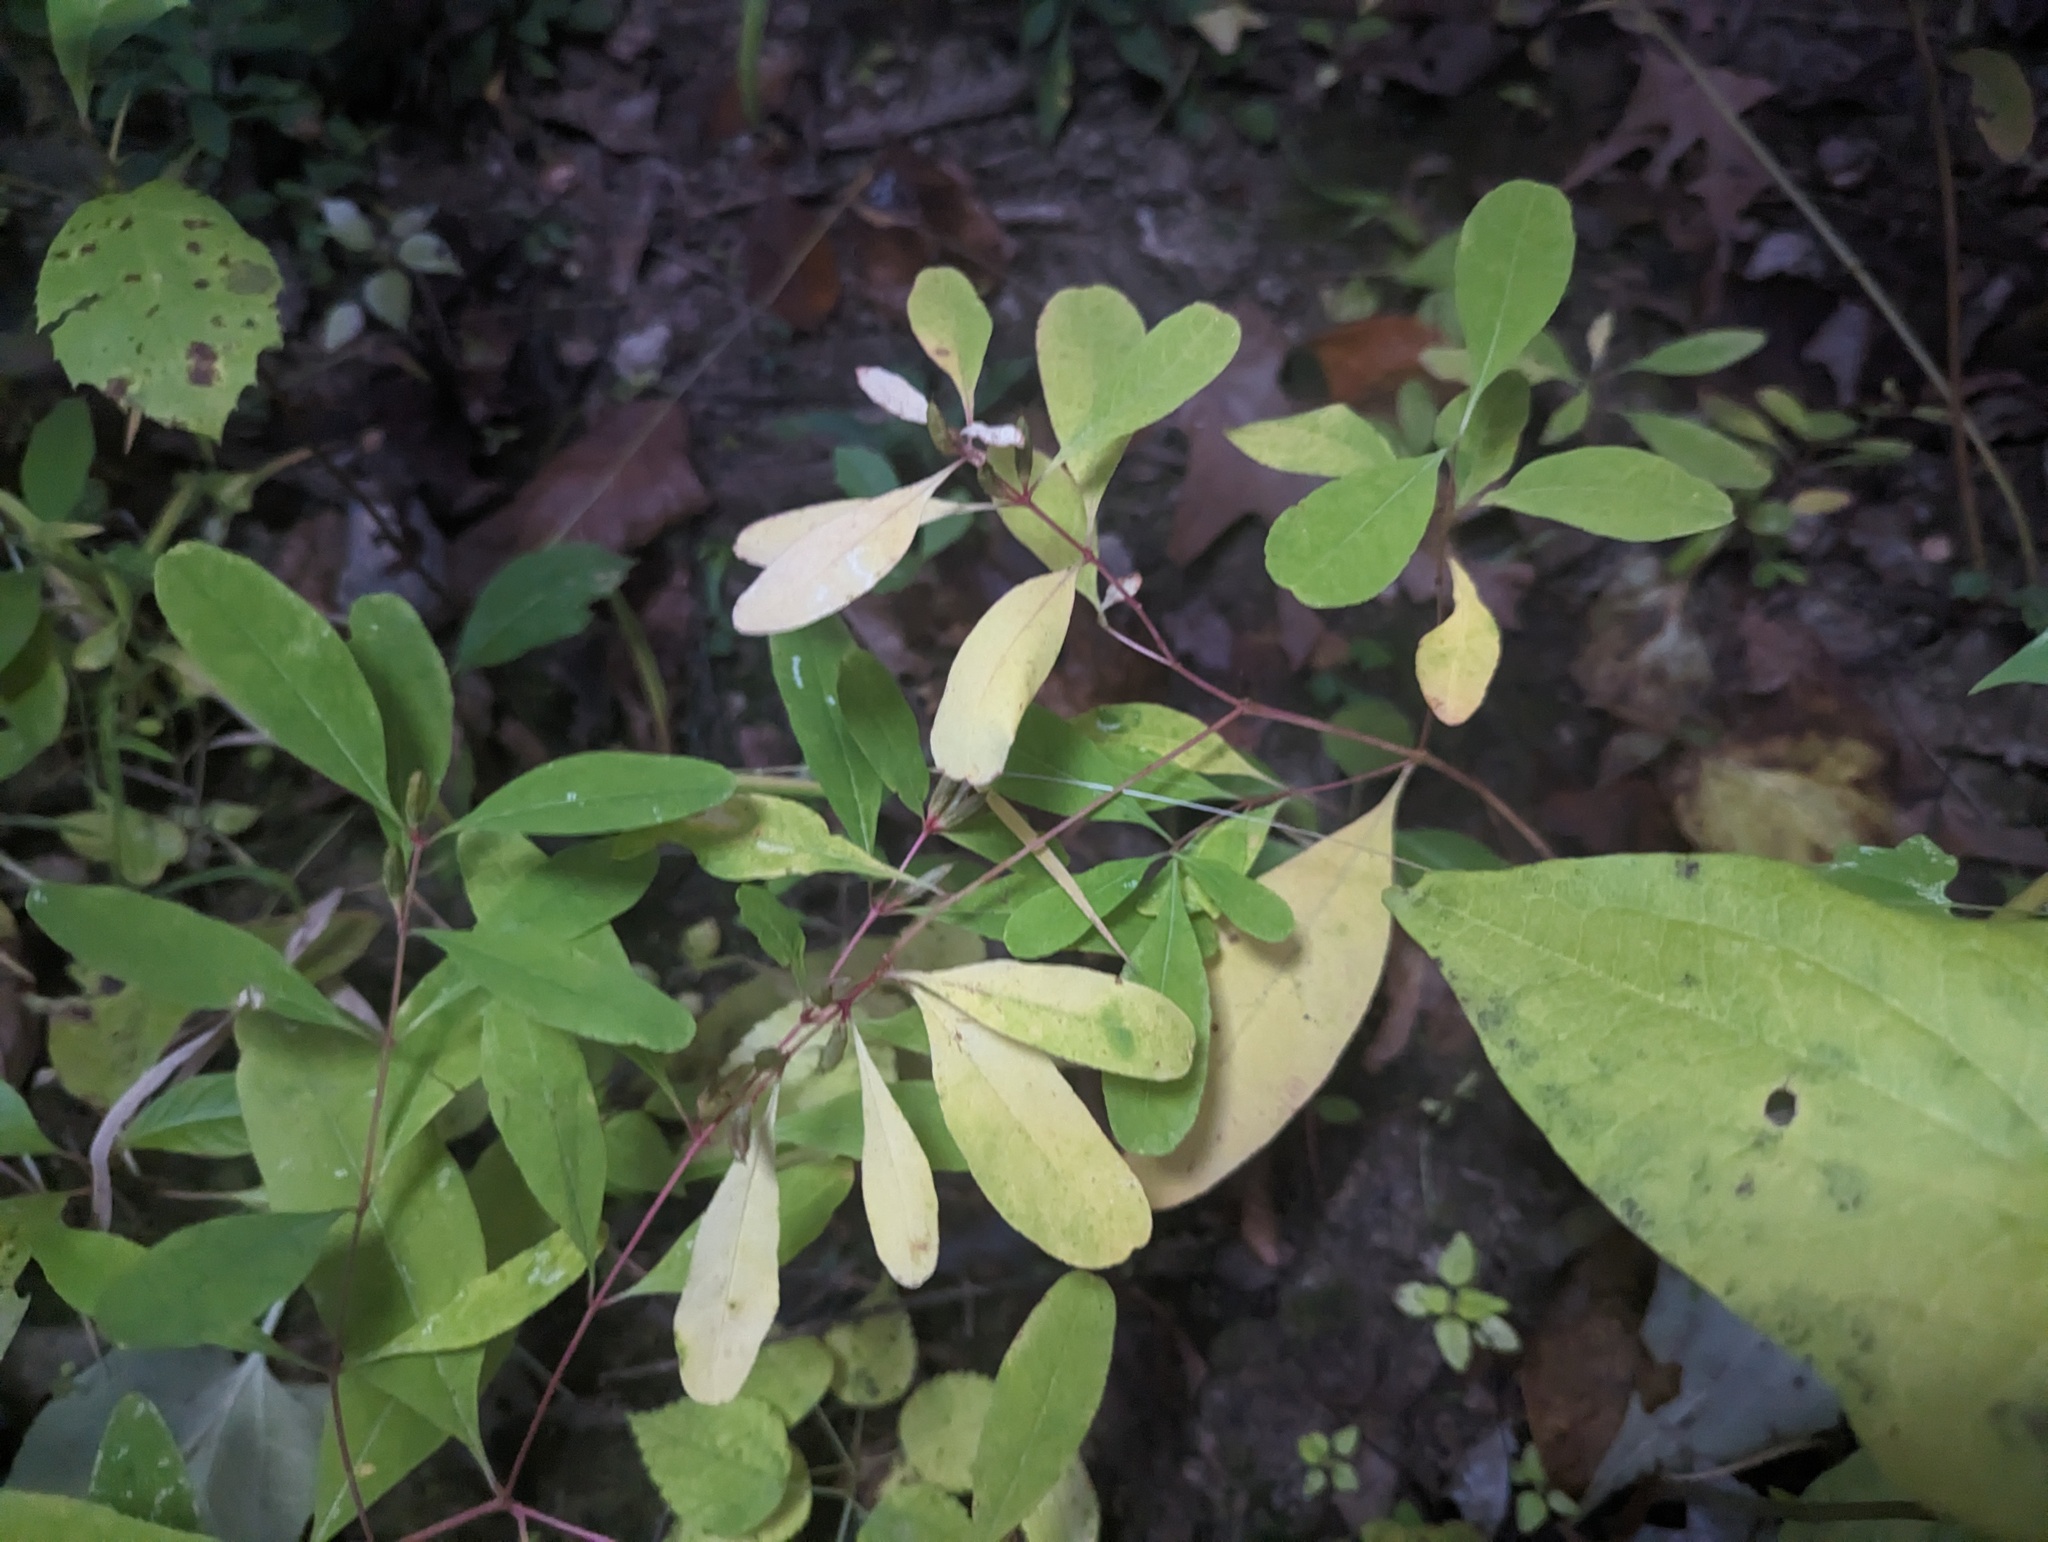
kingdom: Plantae
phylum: Tracheophyta
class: Magnoliopsida
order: Malpighiales
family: Hypericaceae
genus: Triadenum
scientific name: Triadenum walteri
